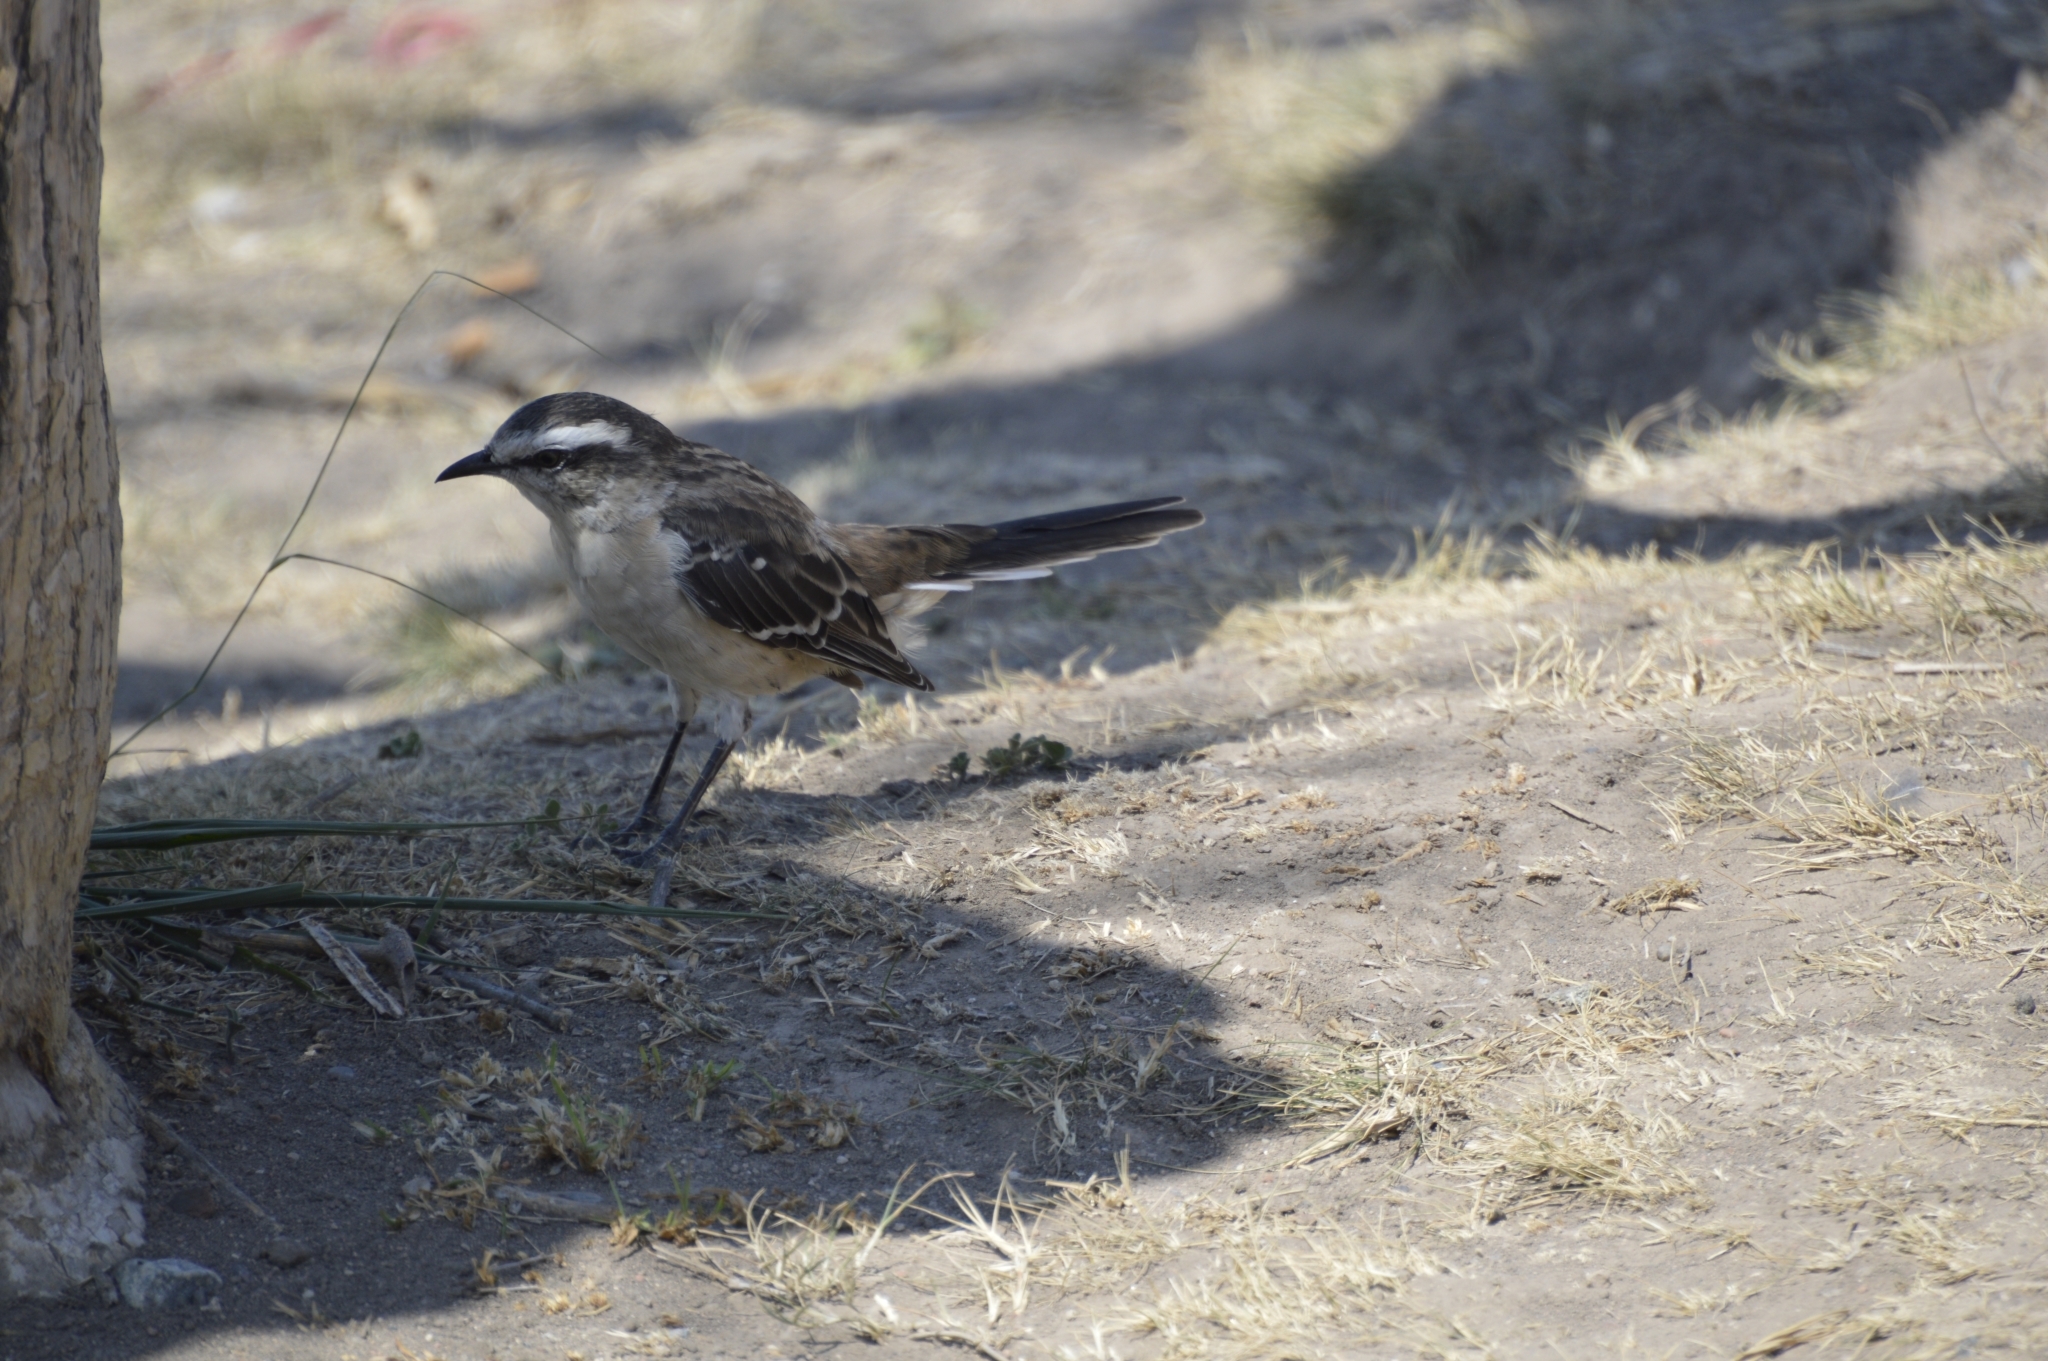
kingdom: Animalia
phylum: Chordata
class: Aves
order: Passeriformes
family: Mimidae
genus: Mimus
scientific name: Mimus saturninus
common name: Chalk-browed mockingbird
